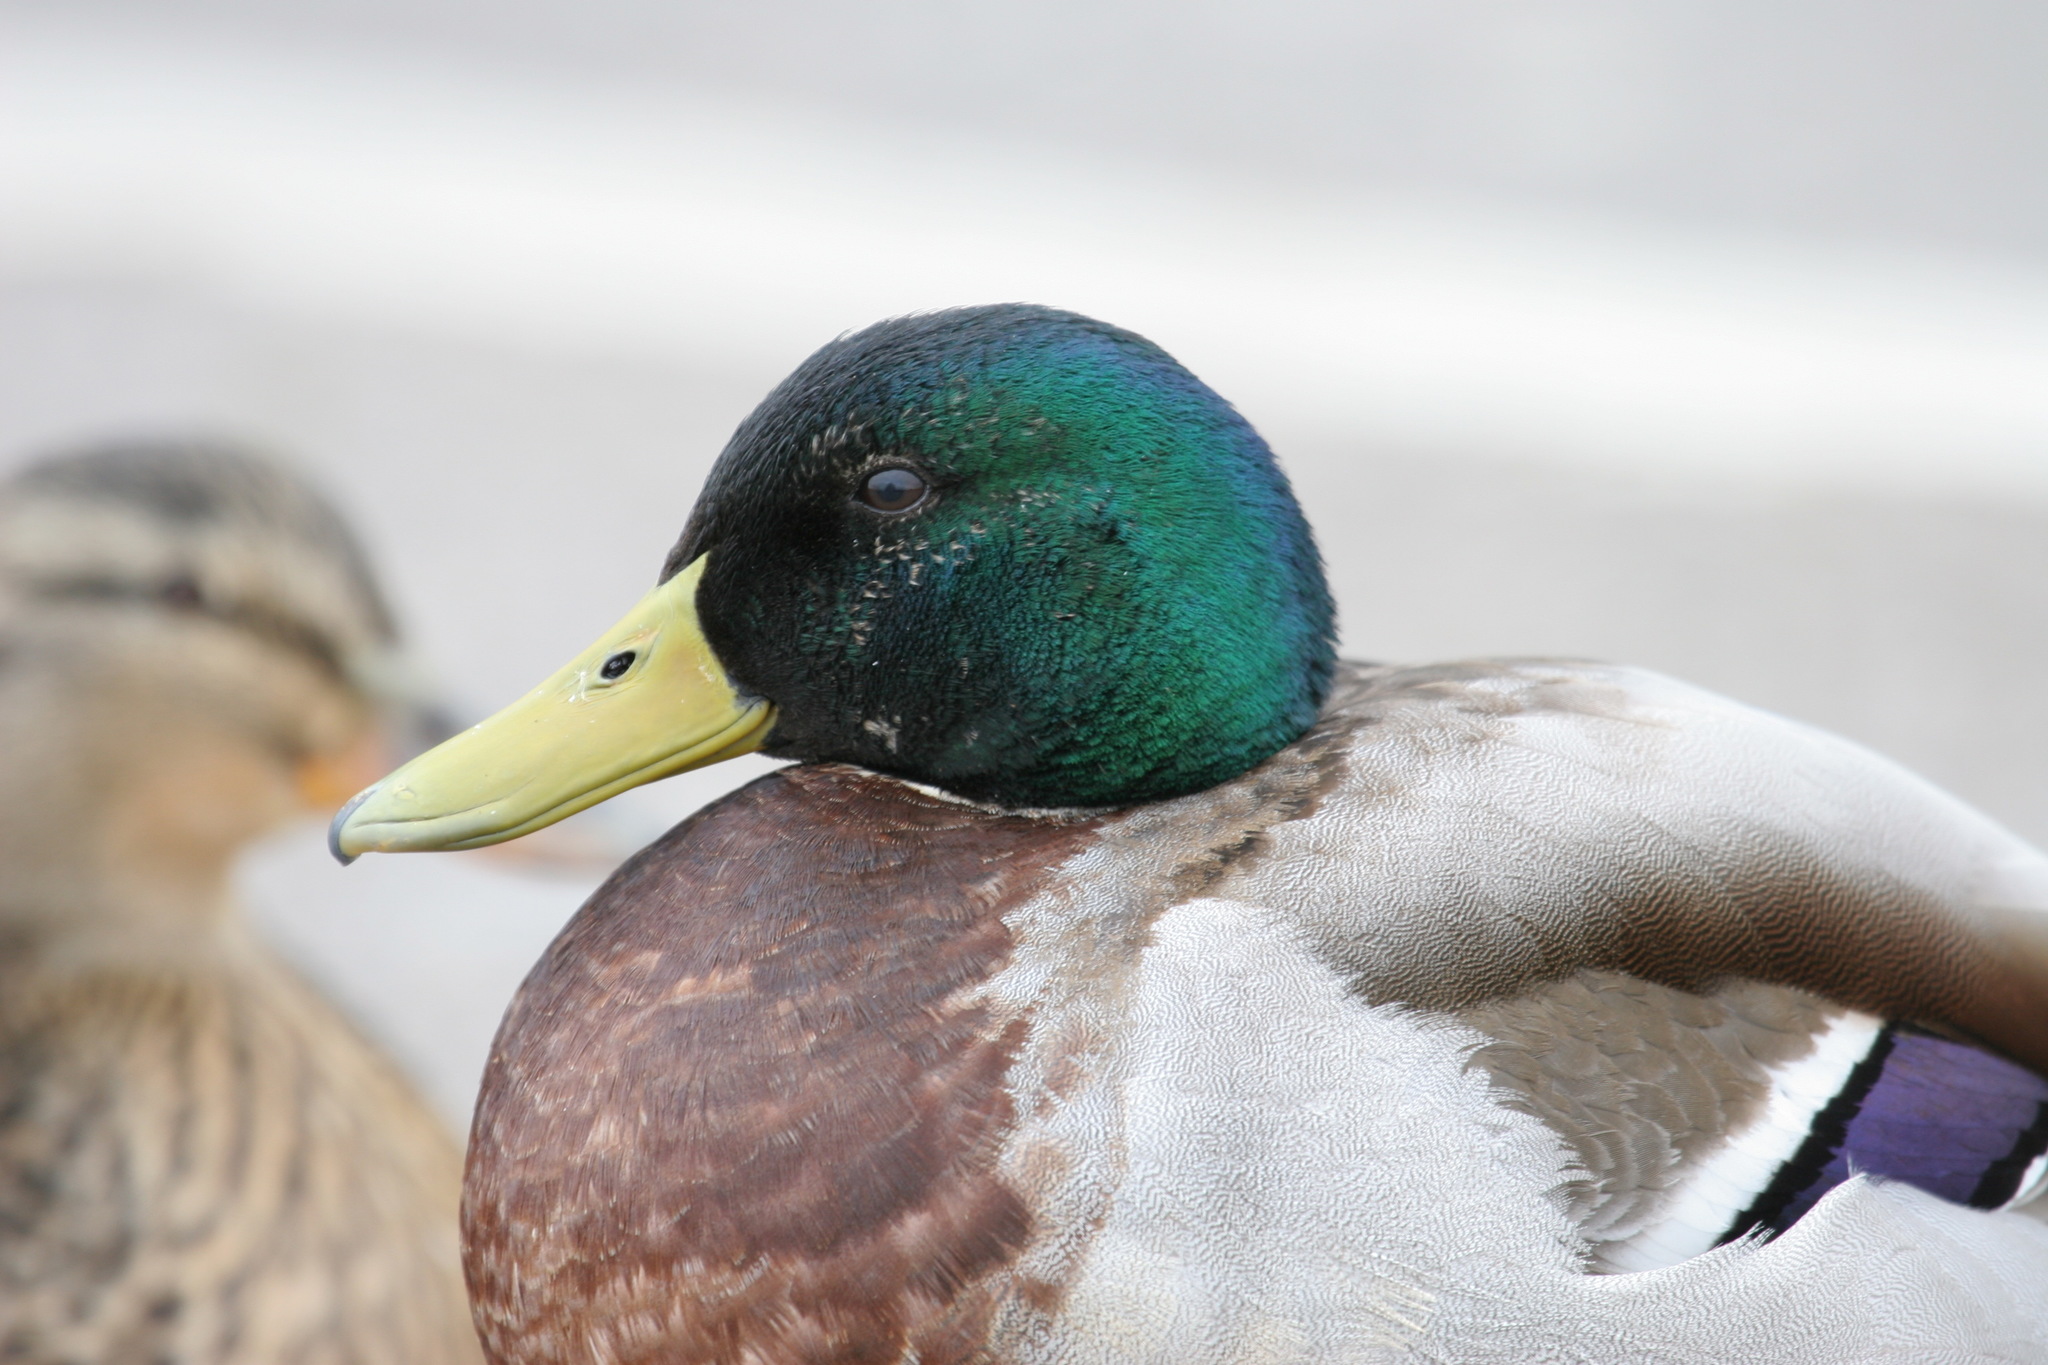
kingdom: Animalia
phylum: Chordata
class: Aves
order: Anseriformes
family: Anatidae
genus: Anas
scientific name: Anas platyrhynchos
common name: Mallard
